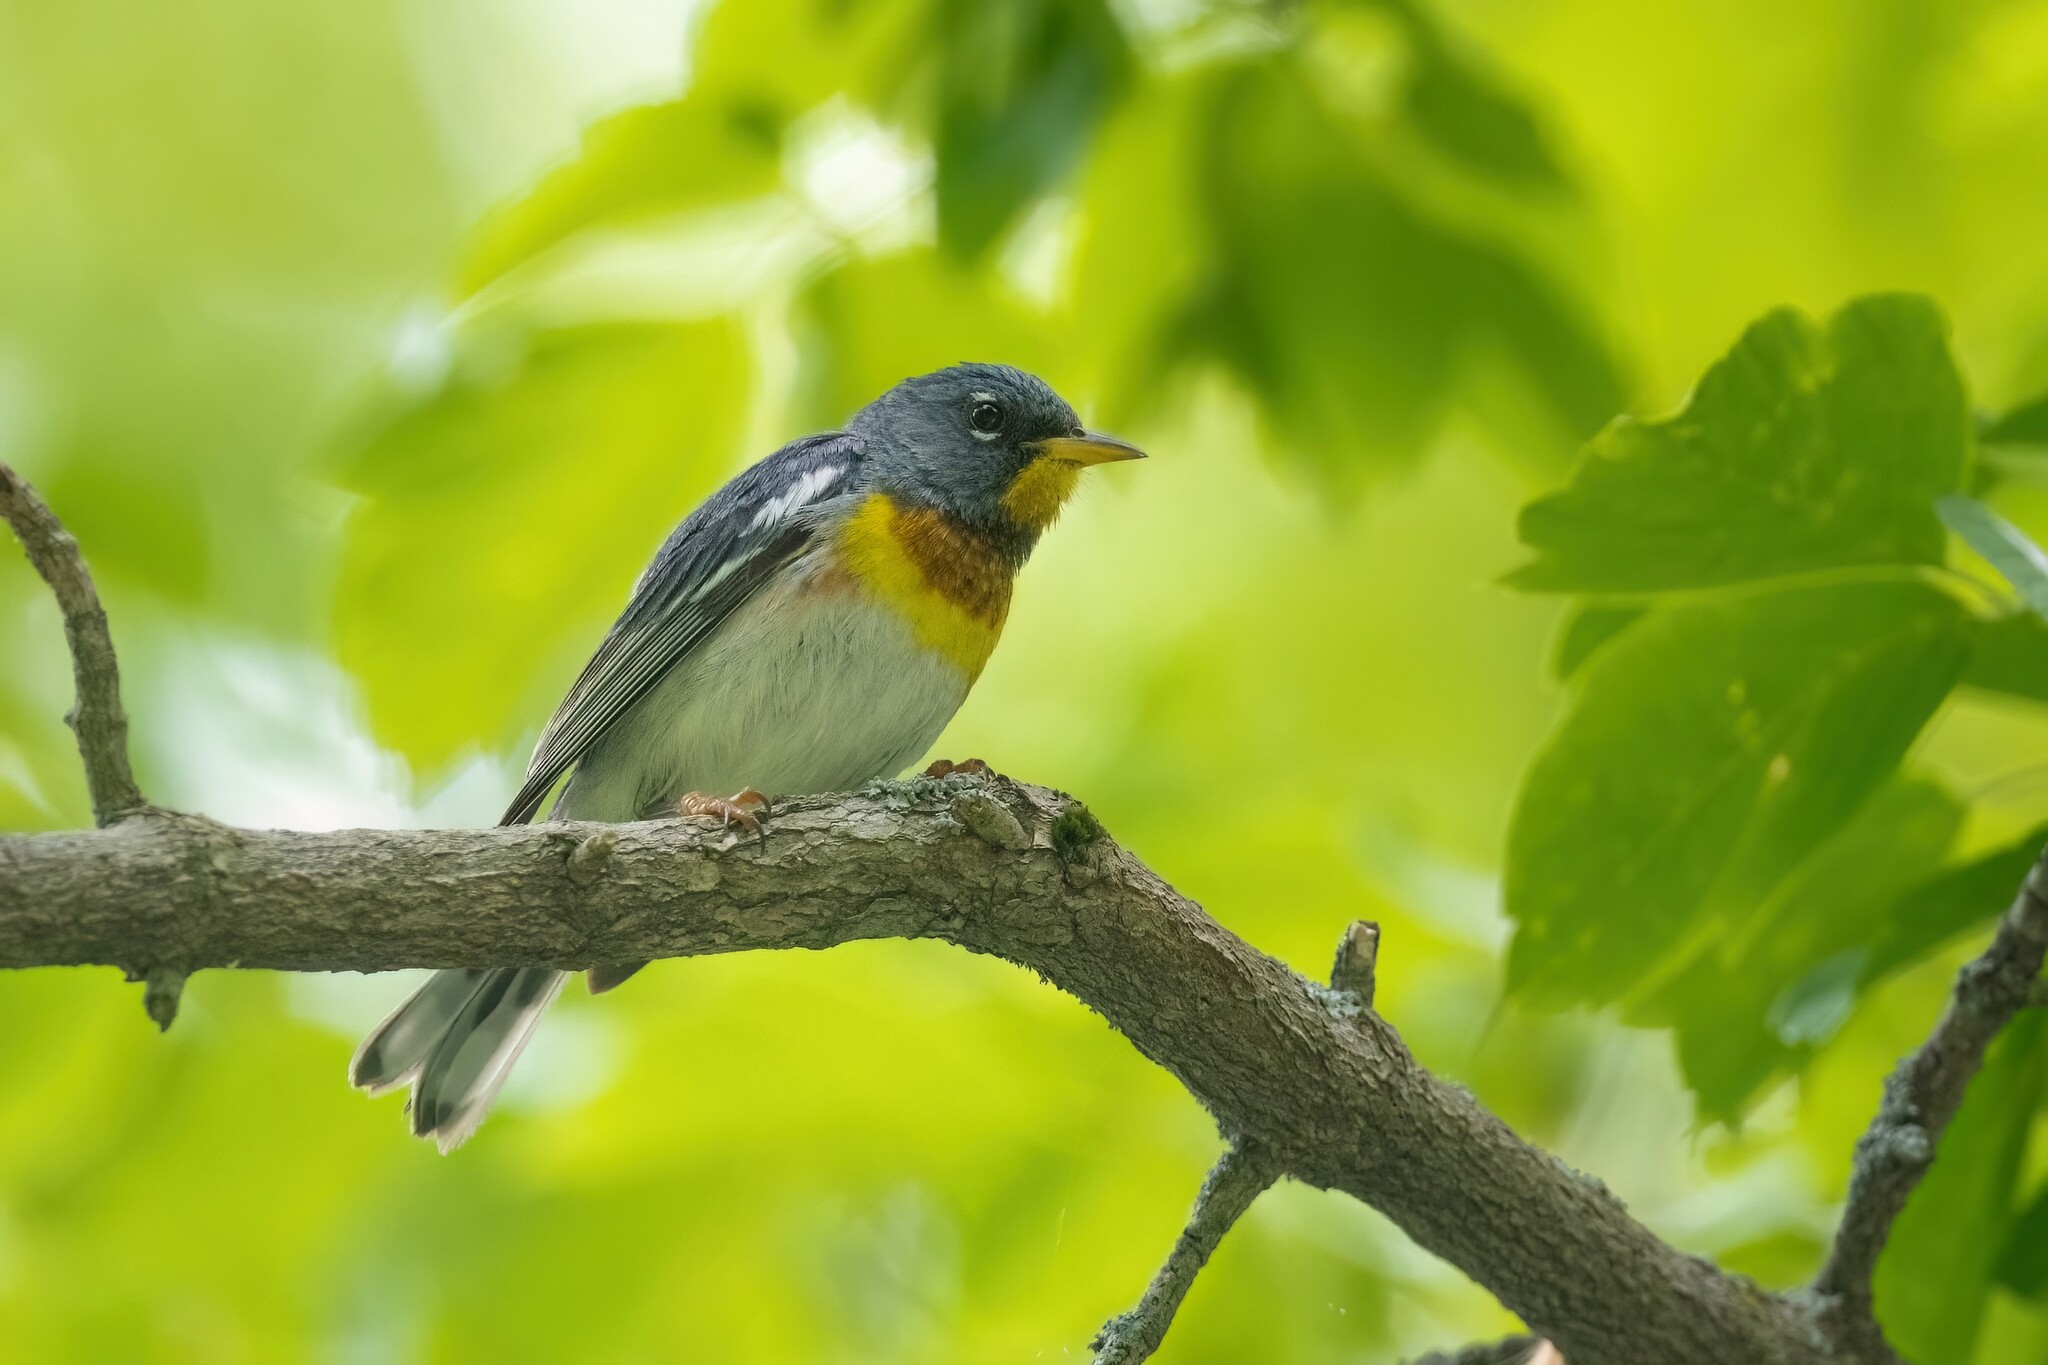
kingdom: Animalia
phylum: Chordata
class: Aves
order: Passeriformes
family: Parulidae
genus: Setophaga
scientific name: Setophaga americana
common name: Northern parula
